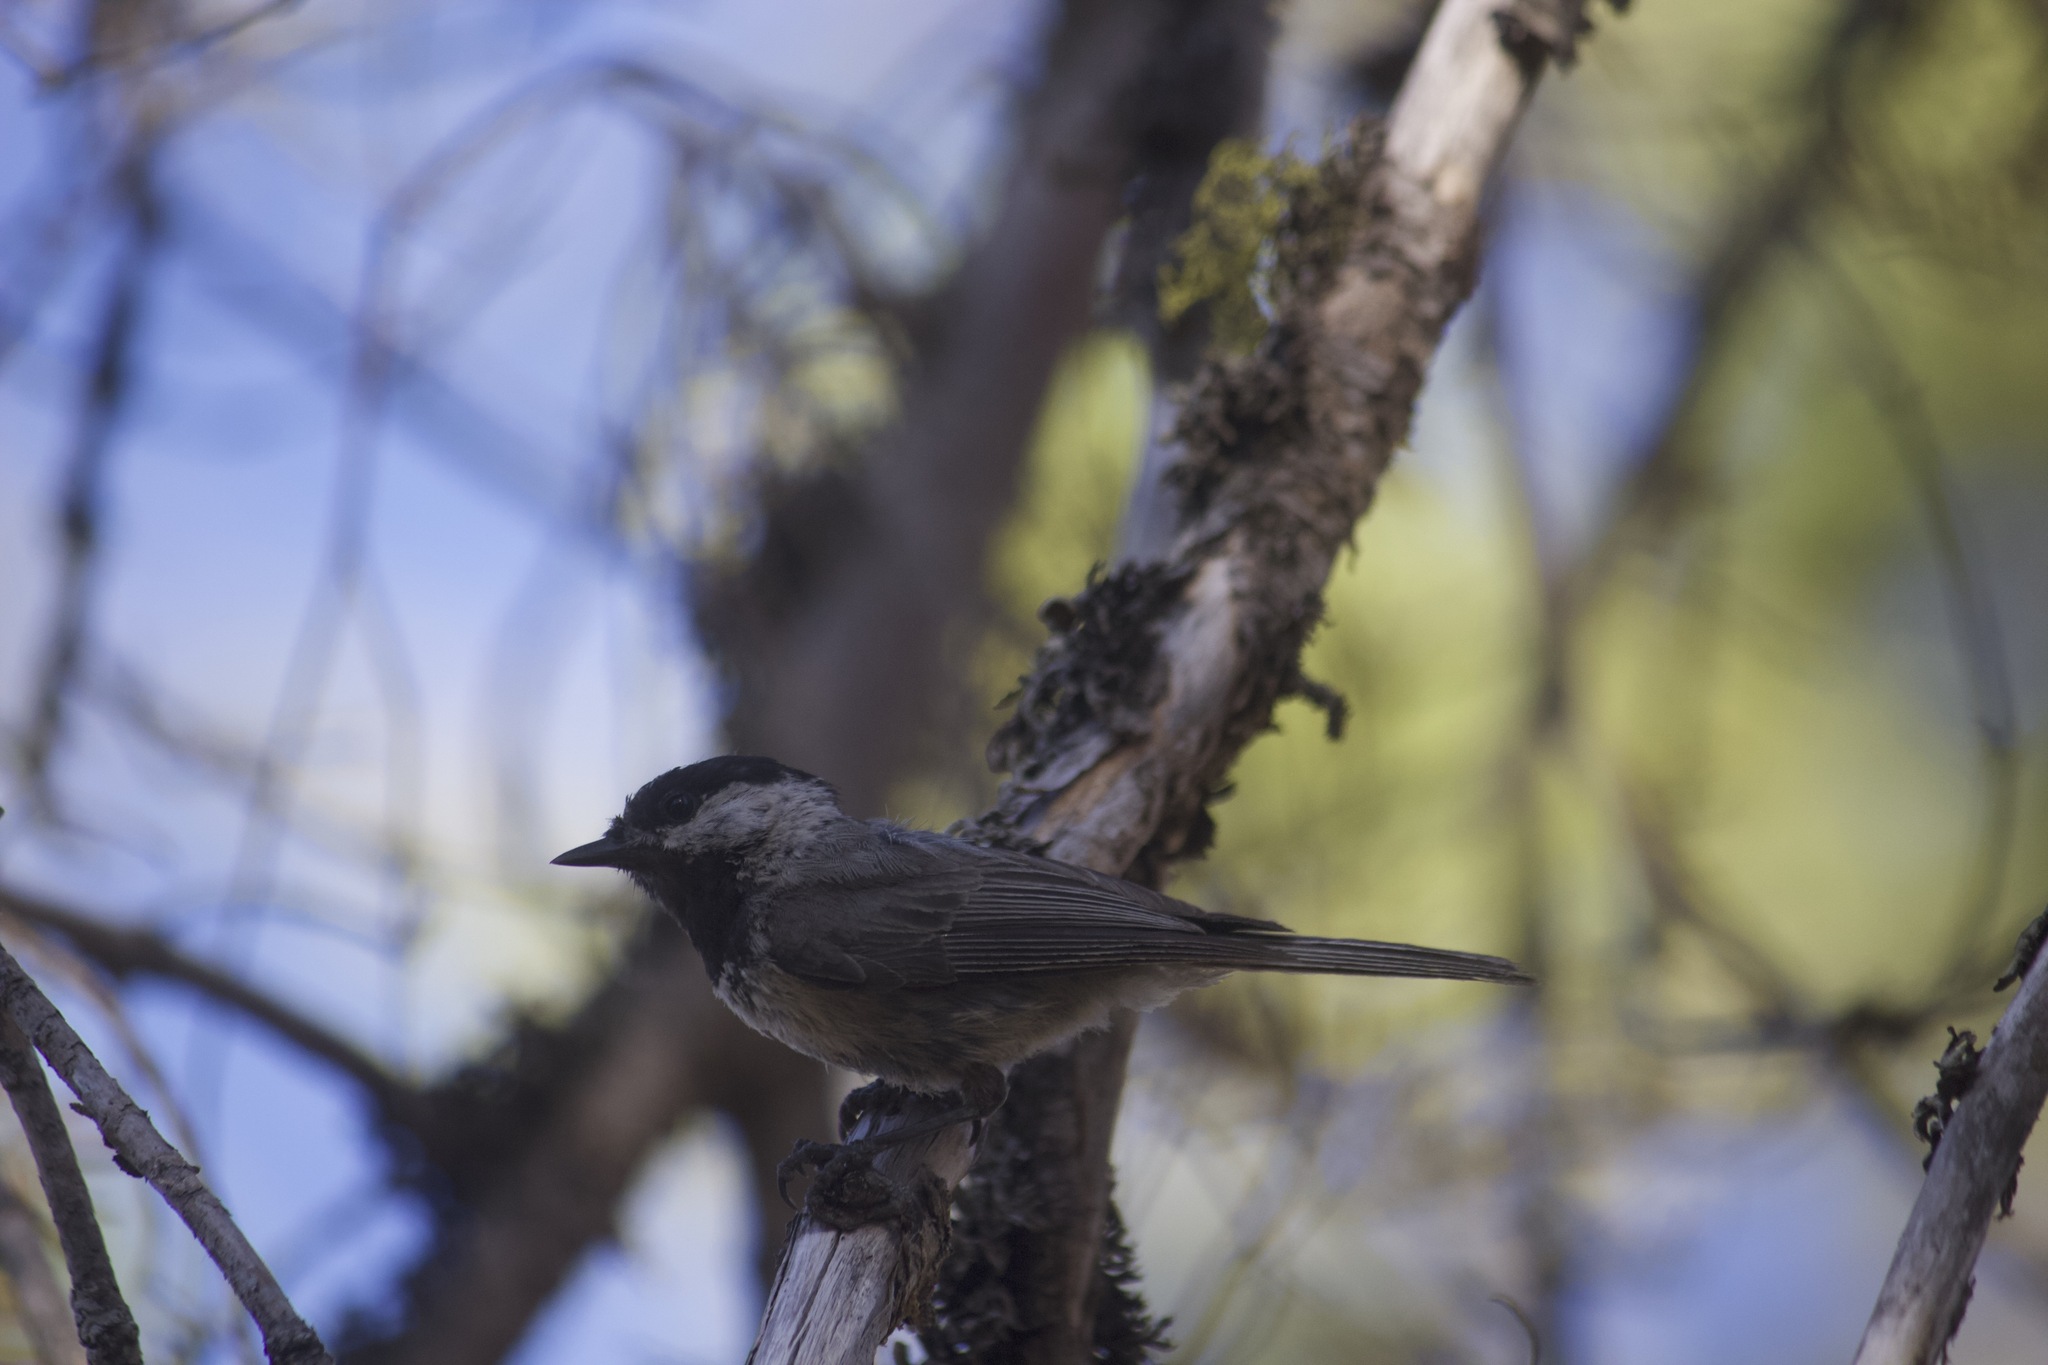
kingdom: Animalia
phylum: Chordata
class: Aves
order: Passeriformes
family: Paridae
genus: Poecile
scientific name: Poecile gambeli
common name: Mountain chickadee
